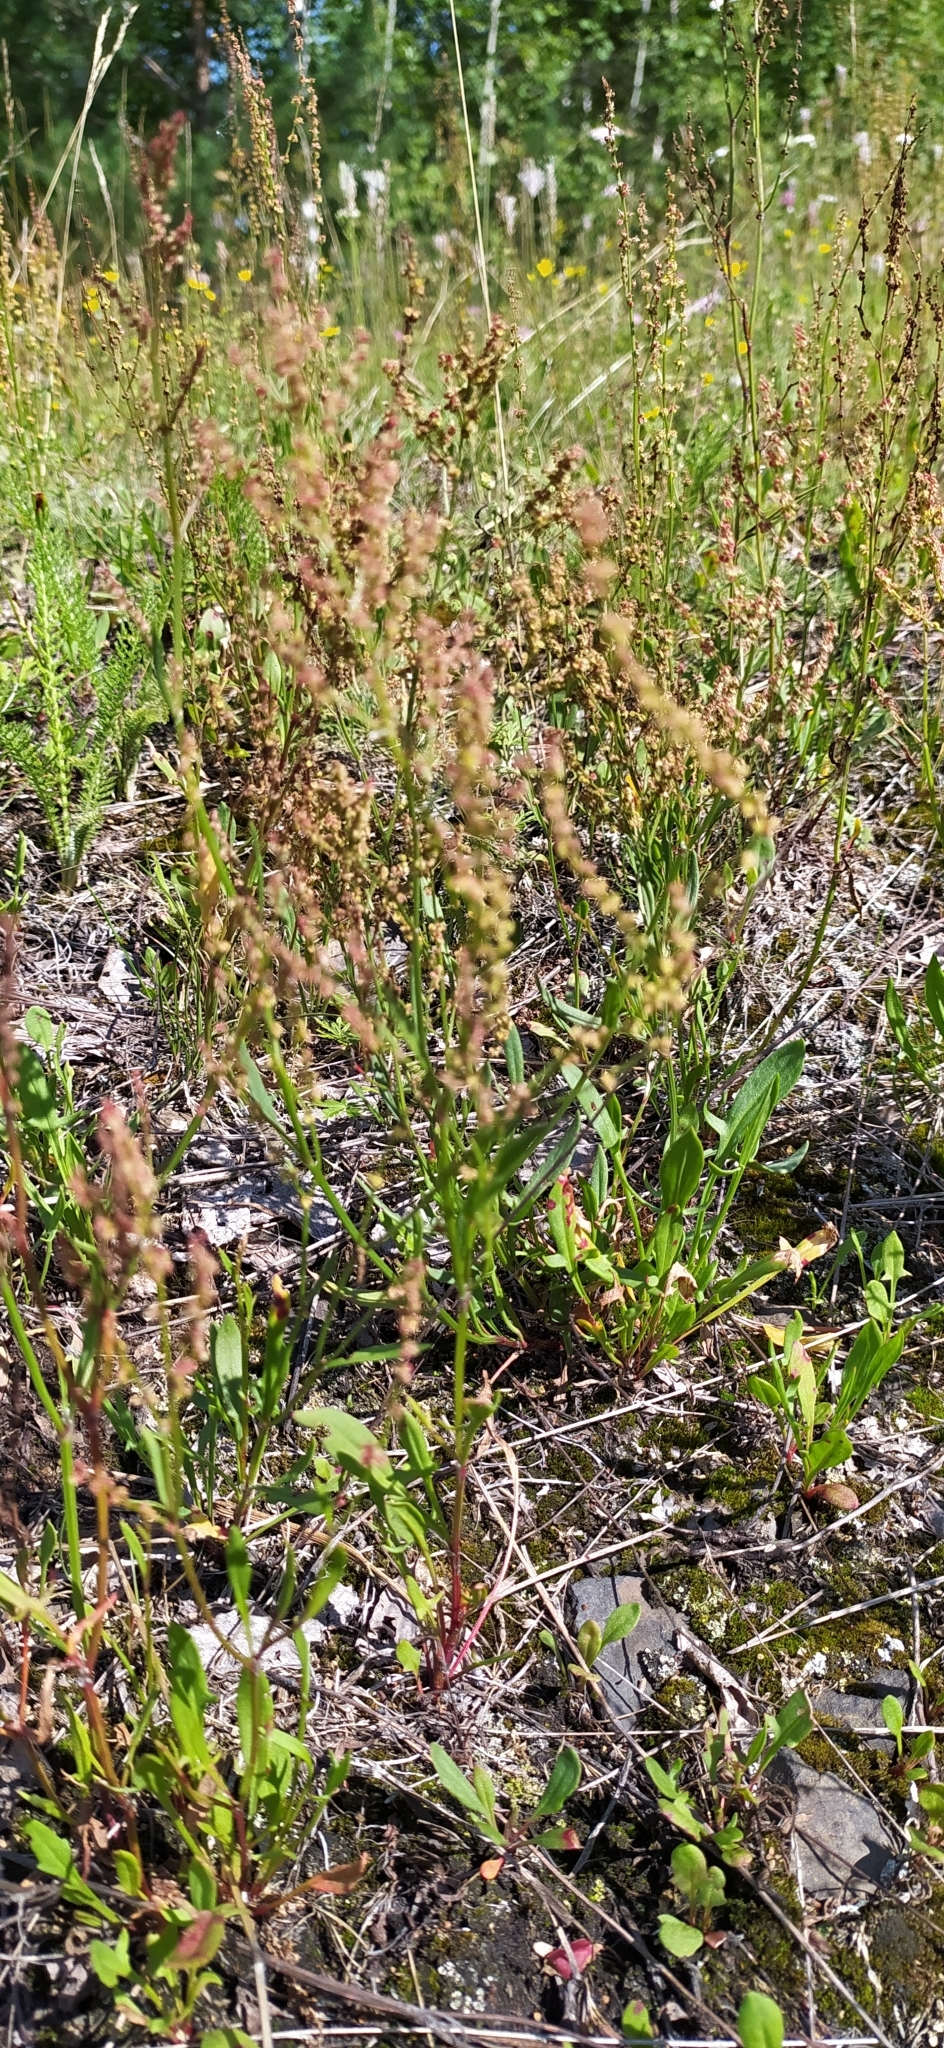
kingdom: Plantae
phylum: Tracheophyta
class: Magnoliopsida
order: Caryophyllales
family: Polygonaceae
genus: Rumex
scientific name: Rumex acetosella
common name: Common sheep sorrel
